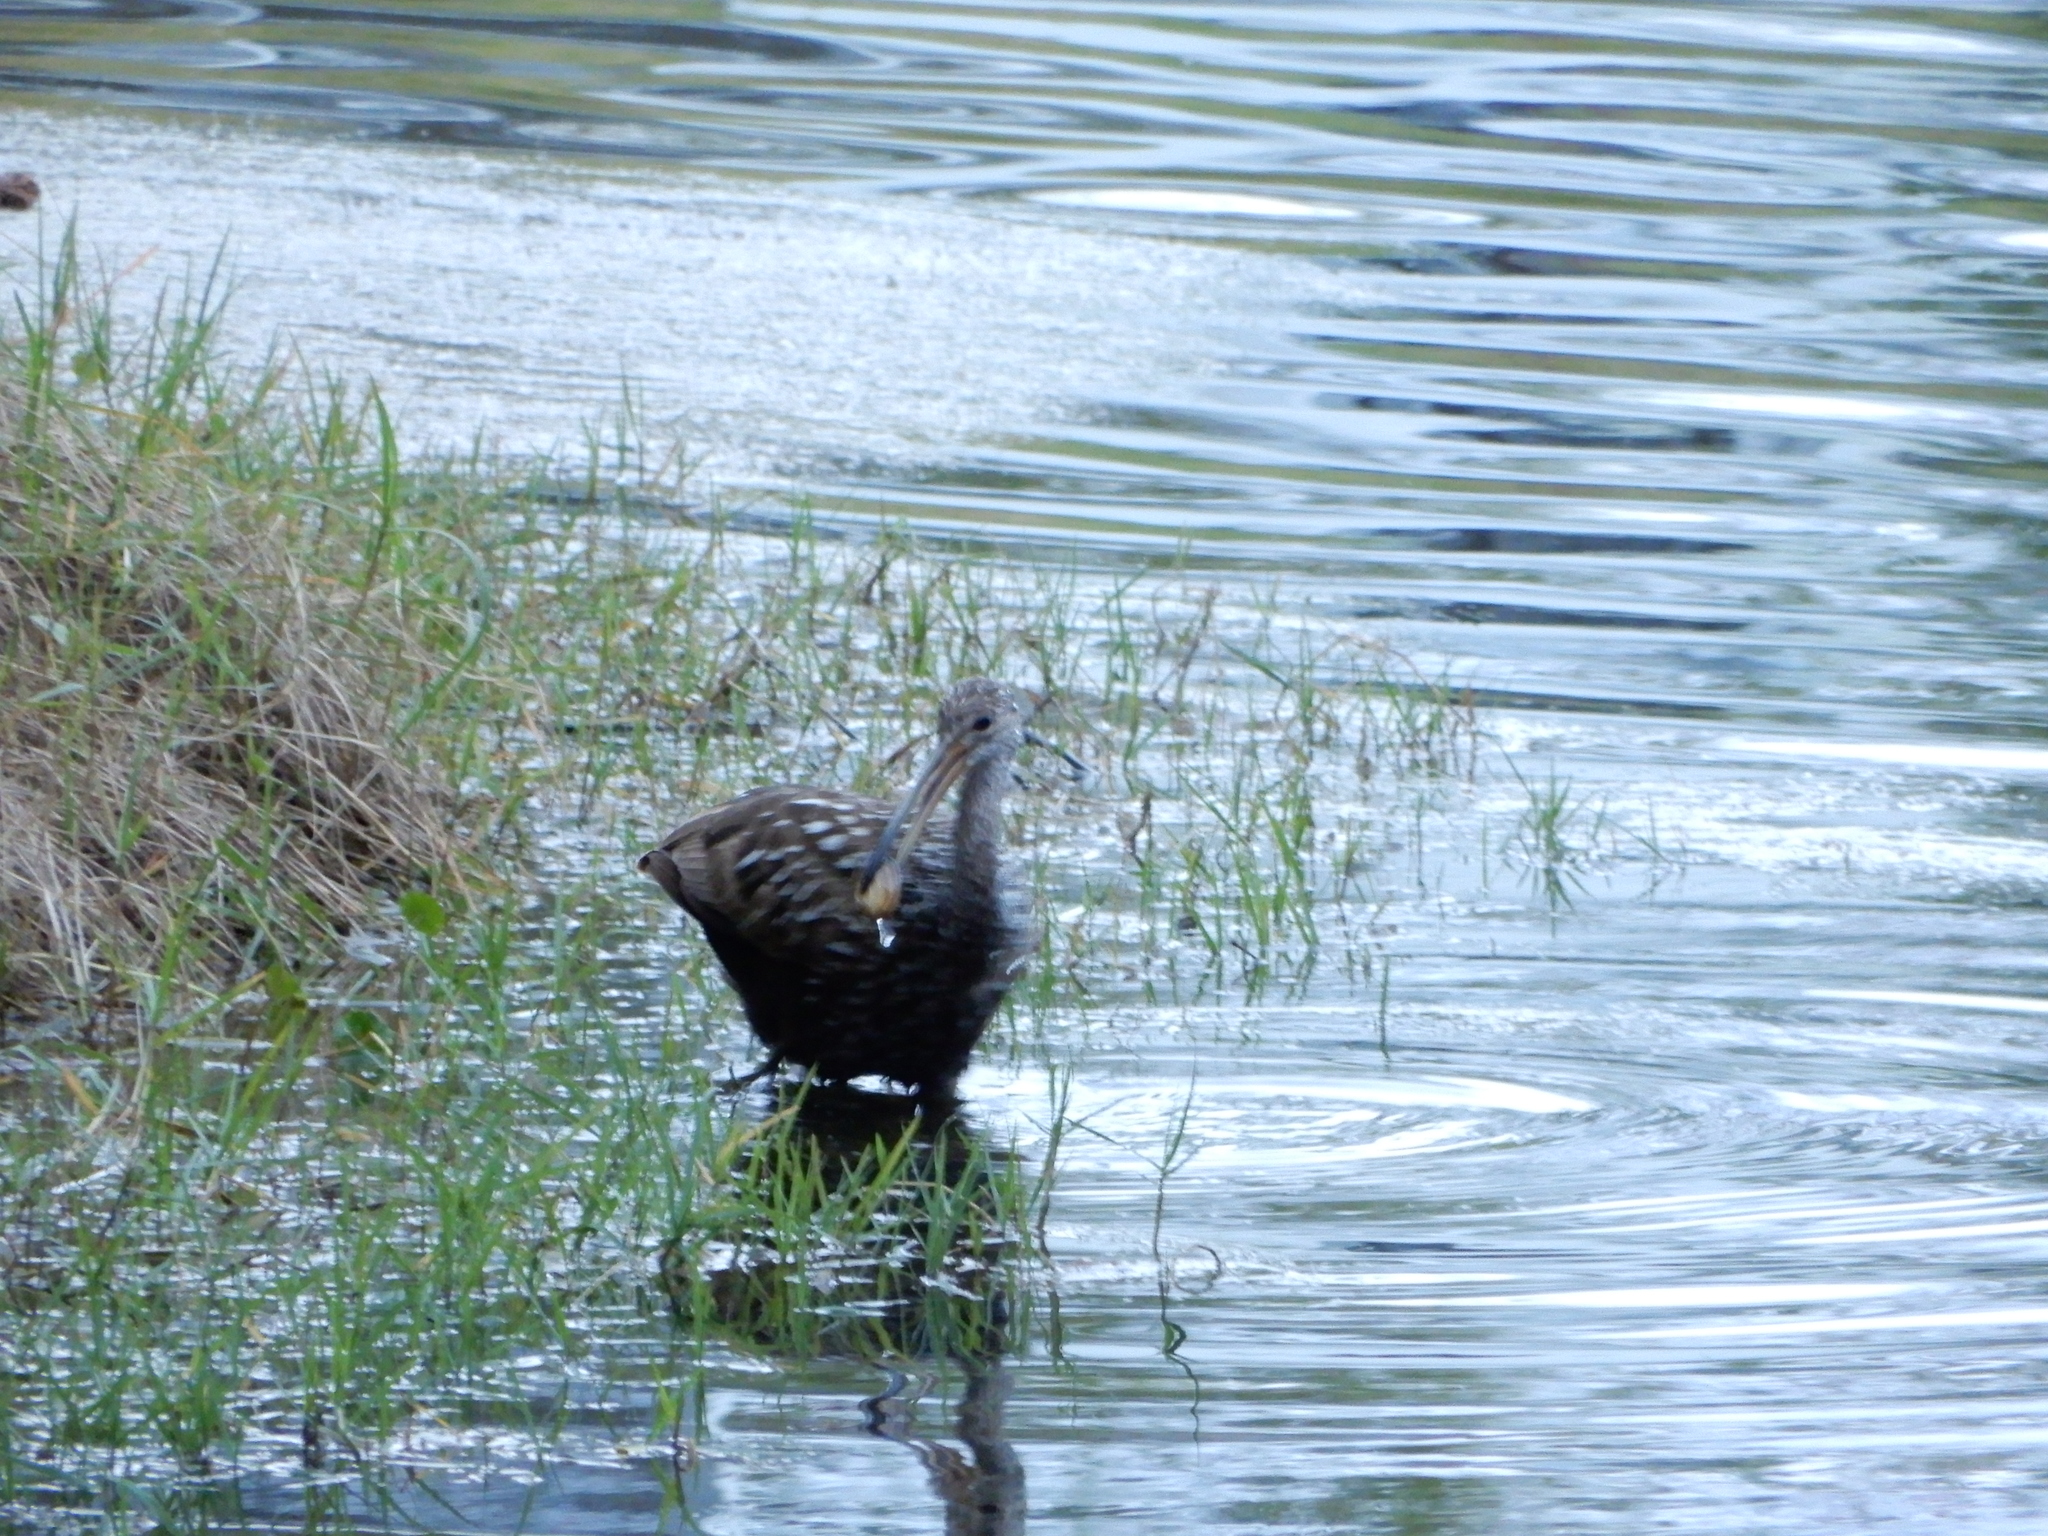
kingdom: Animalia
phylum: Chordata
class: Aves
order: Gruiformes
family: Aramidae
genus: Aramus
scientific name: Aramus guarauna
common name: Limpkin
